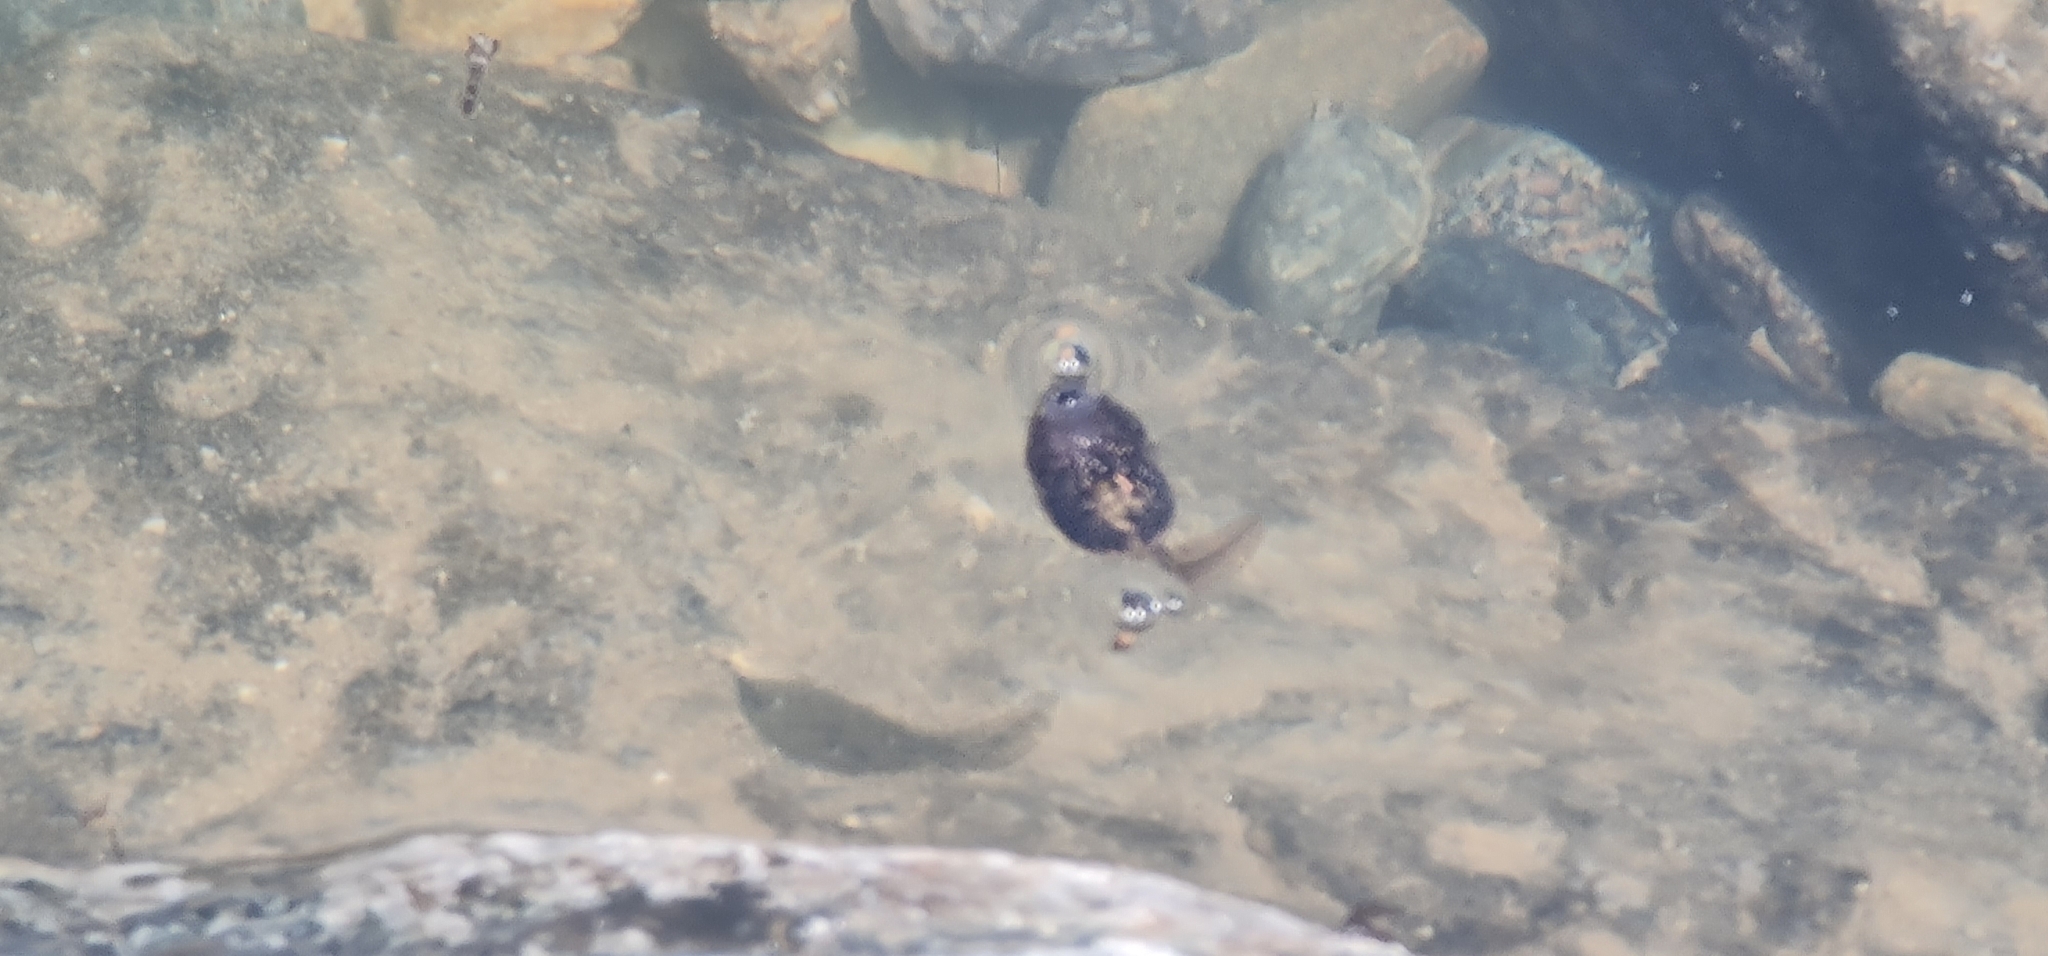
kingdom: Animalia
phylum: Chordata
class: Amphibia
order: Anura
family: Ranidae
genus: Rana
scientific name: Rana temporaria
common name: Common frog
